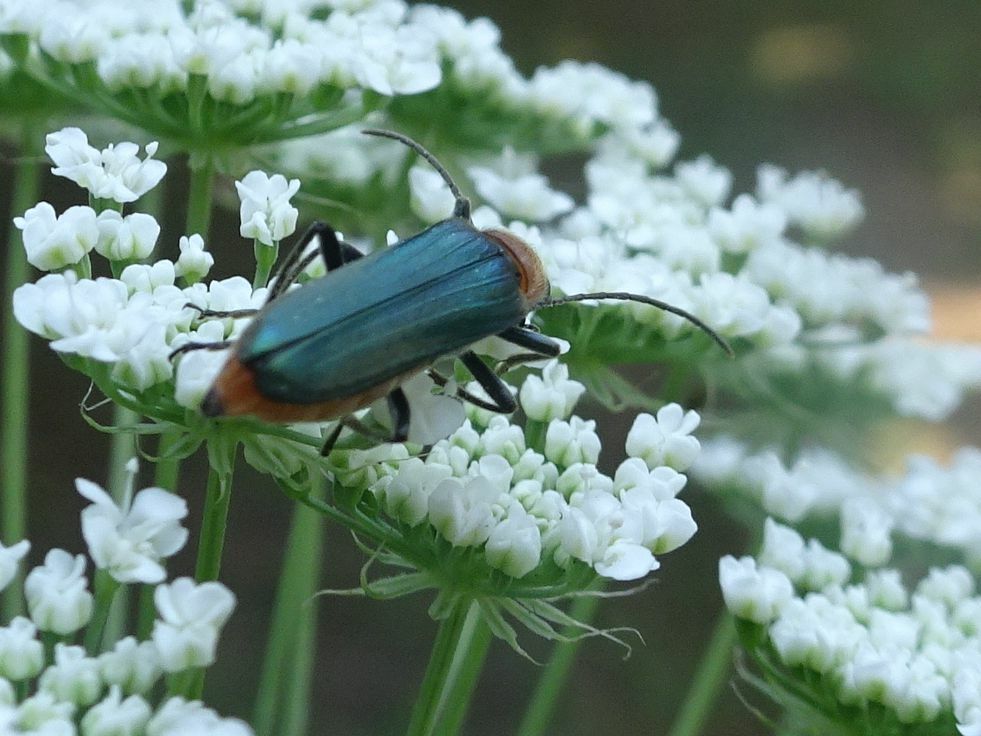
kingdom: Animalia
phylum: Arthropoda
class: Insecta
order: Coleoptera
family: Oedemeridae
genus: Anogcodes
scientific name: Anogcodes seladonius
